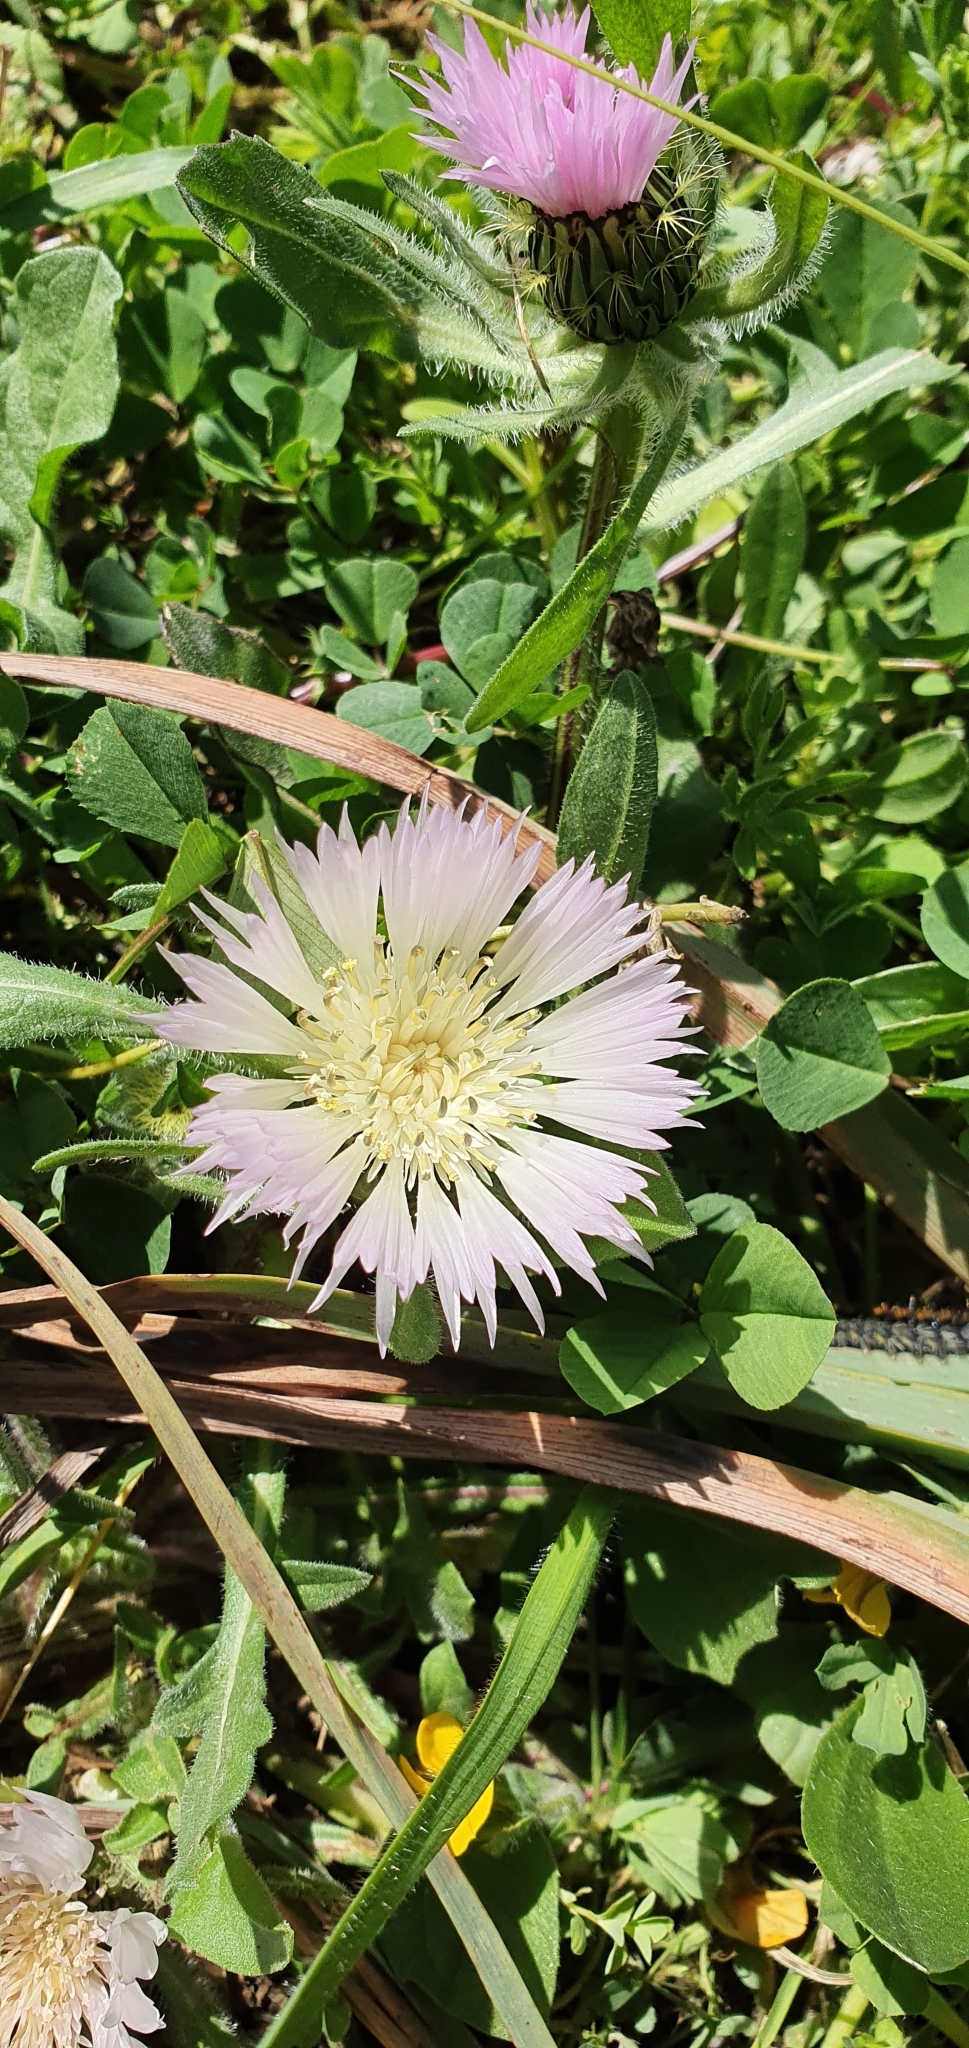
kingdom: Plantae
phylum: Tracheophyta
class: Magnoliopsida
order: Asterales
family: Asteraceae
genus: Centaurea
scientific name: Centaurea pullata
